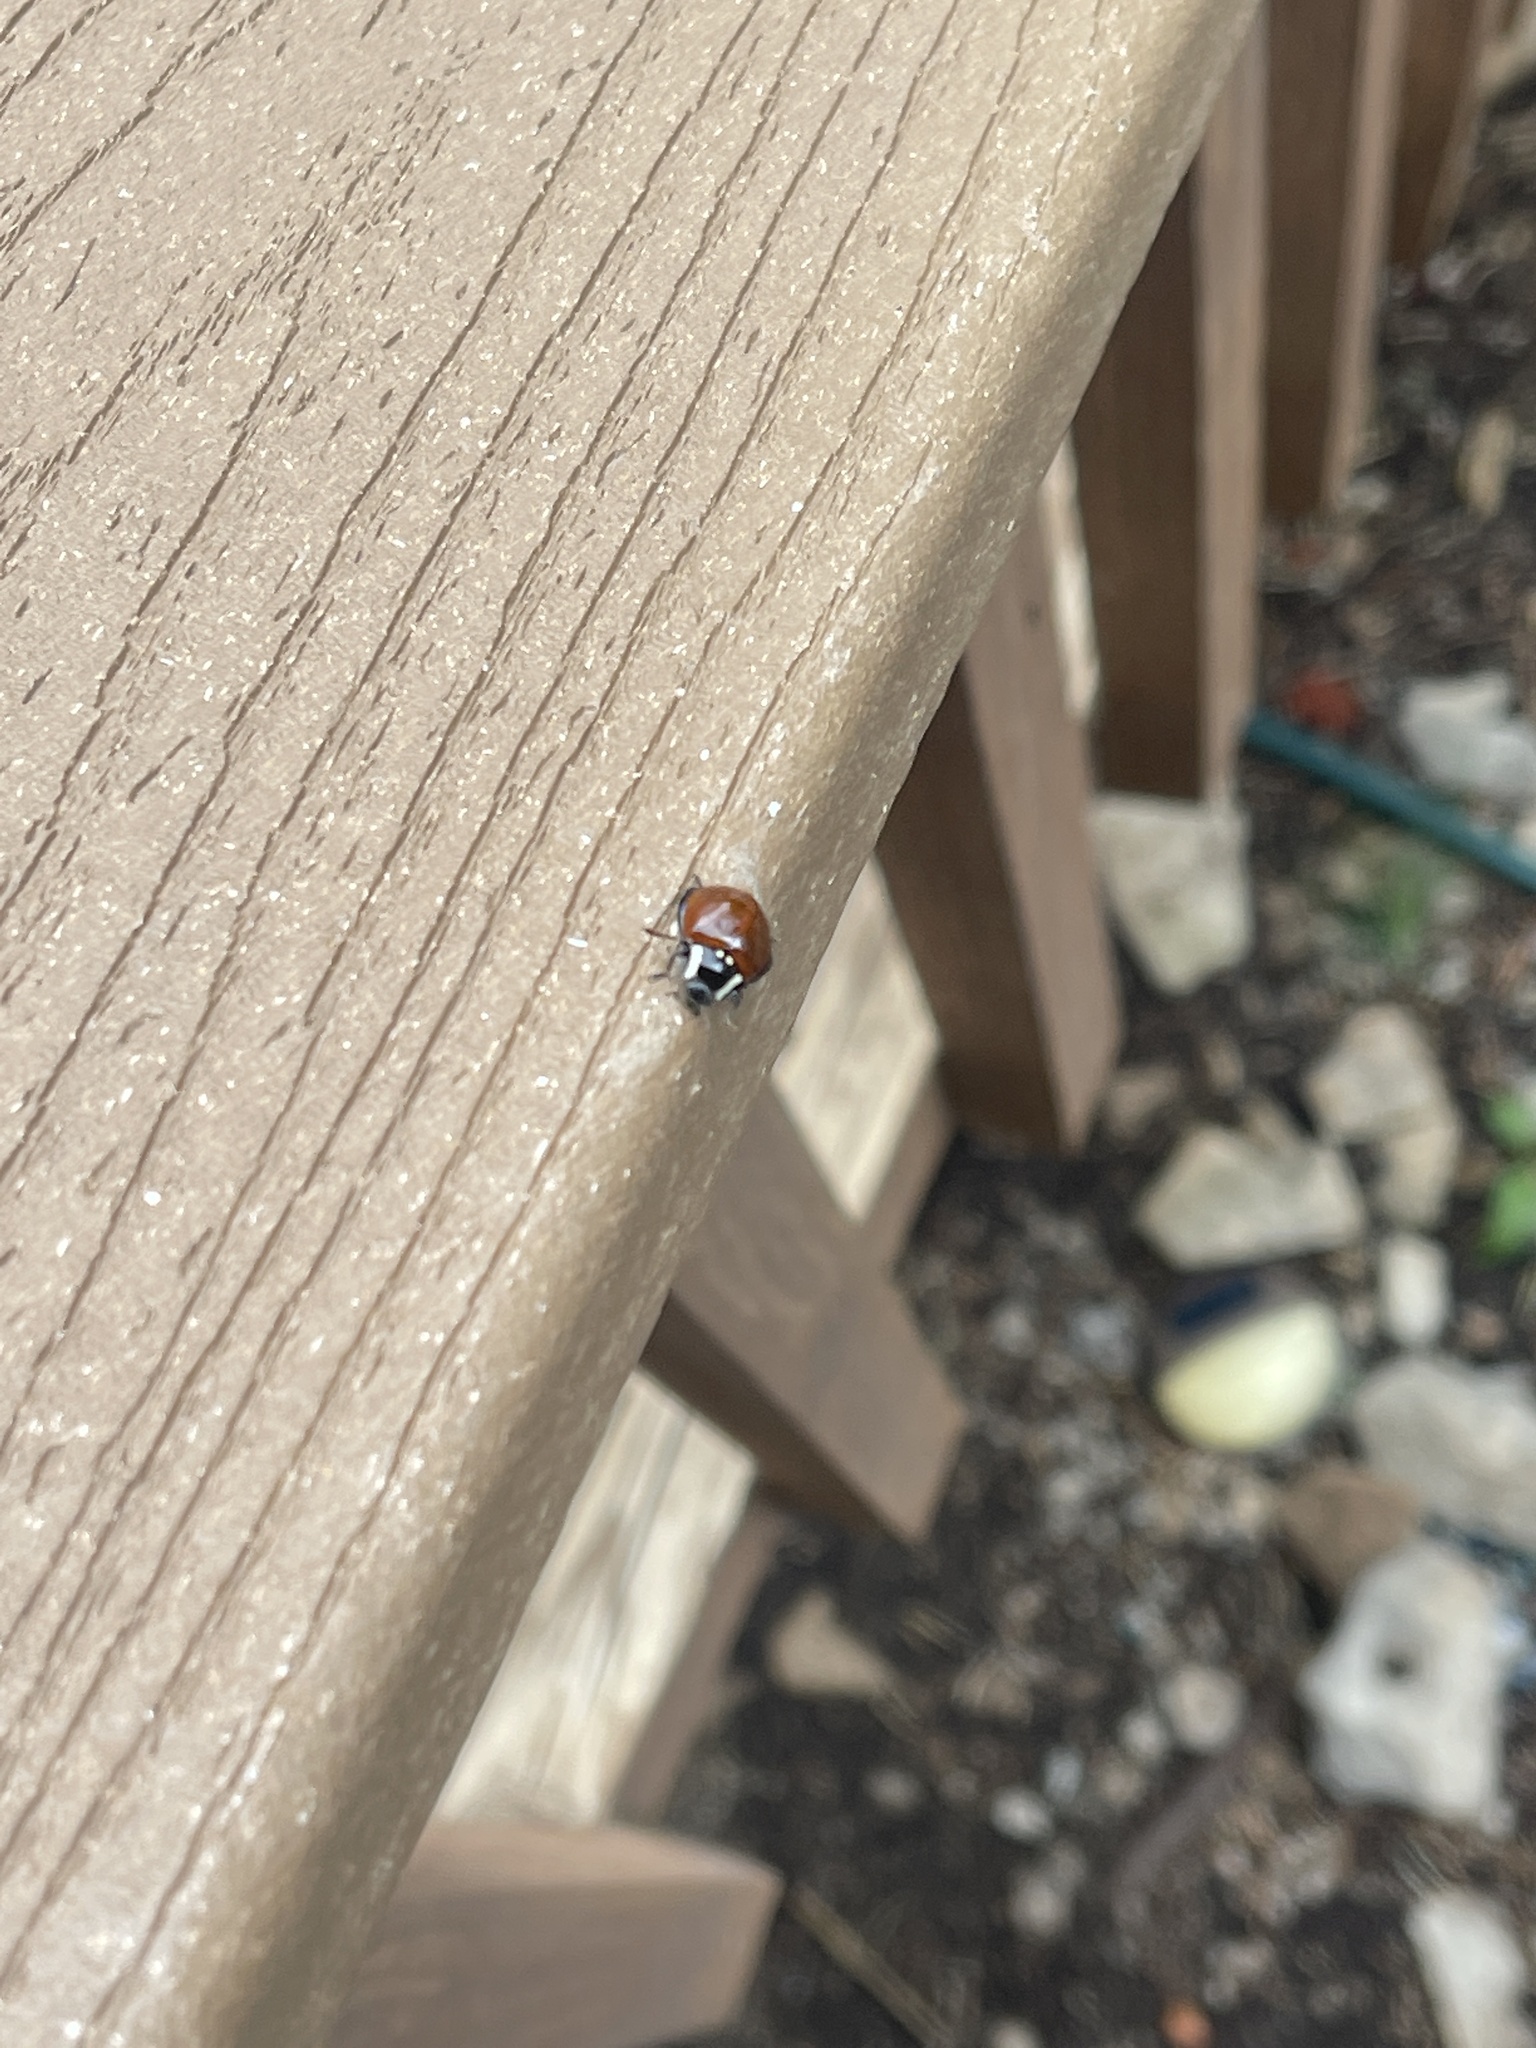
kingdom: Animalia
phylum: Arthropoda
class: Insecta
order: Coleoptera
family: Coccinellidae
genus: Anatis
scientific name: Anatis lecontei
